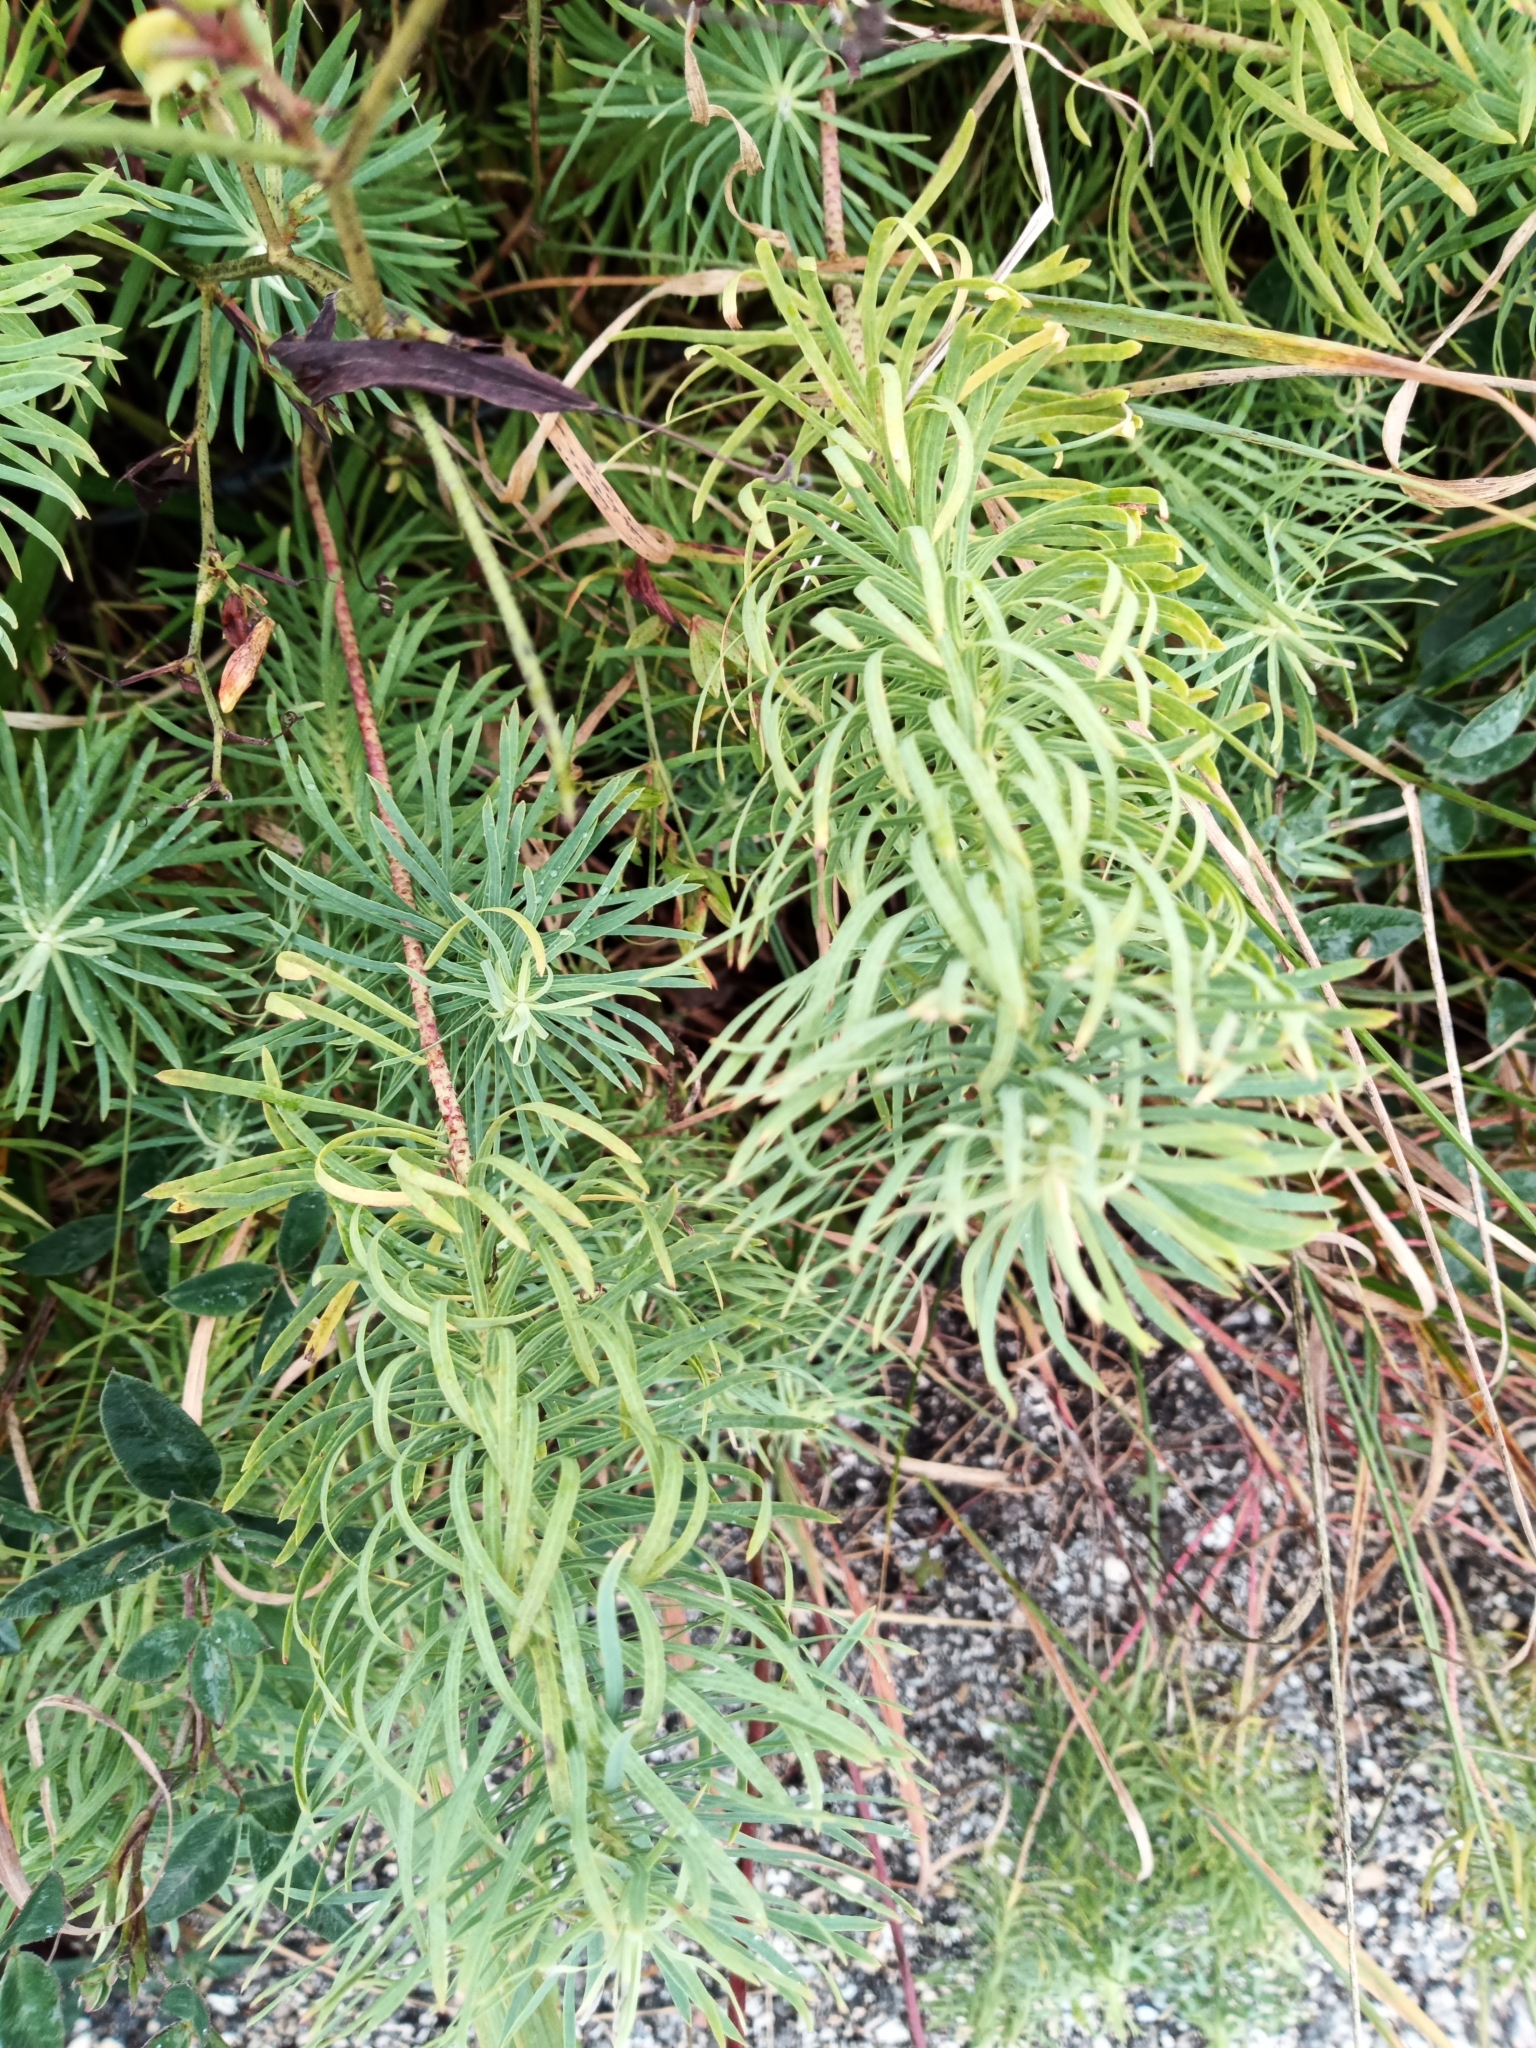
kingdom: Plantae
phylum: Tracheophyta
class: Magnoliopsida
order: Malpighiales
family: Euphorbiaceae
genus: Euphorbia
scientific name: Euphorbia cyparissias
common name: Cypress spurge
